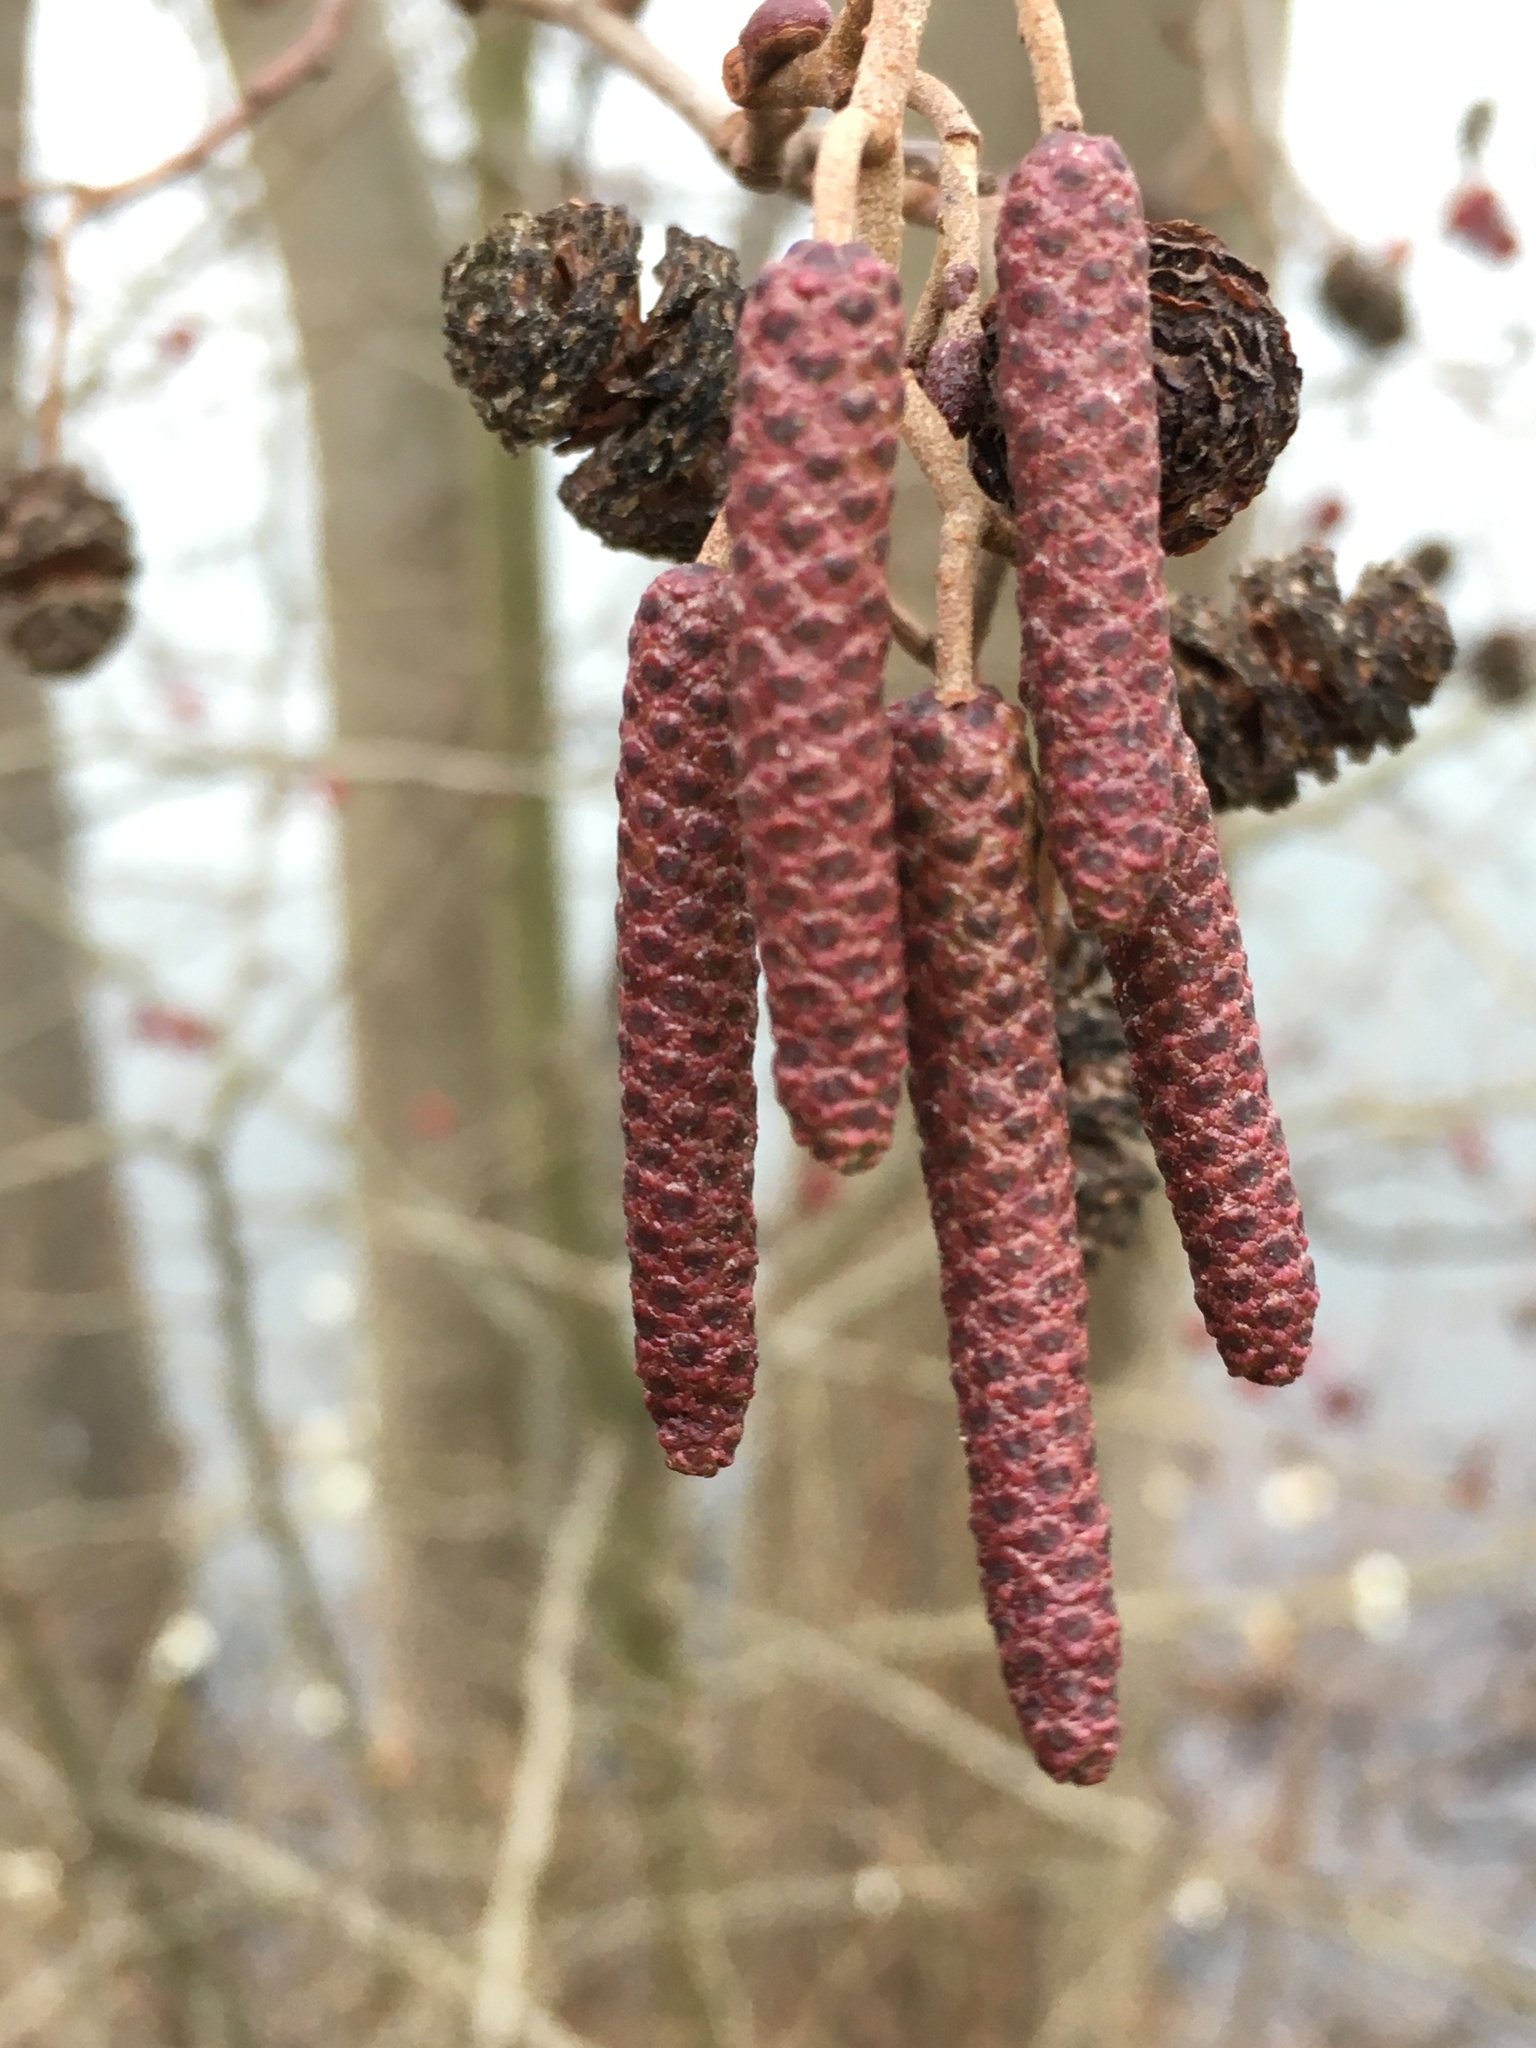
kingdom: Plantae
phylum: Tracheophyta
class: Magnoliopsida
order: Fagales
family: Betulaceae
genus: Alnus
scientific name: Alnus glutinosa
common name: Black alder
